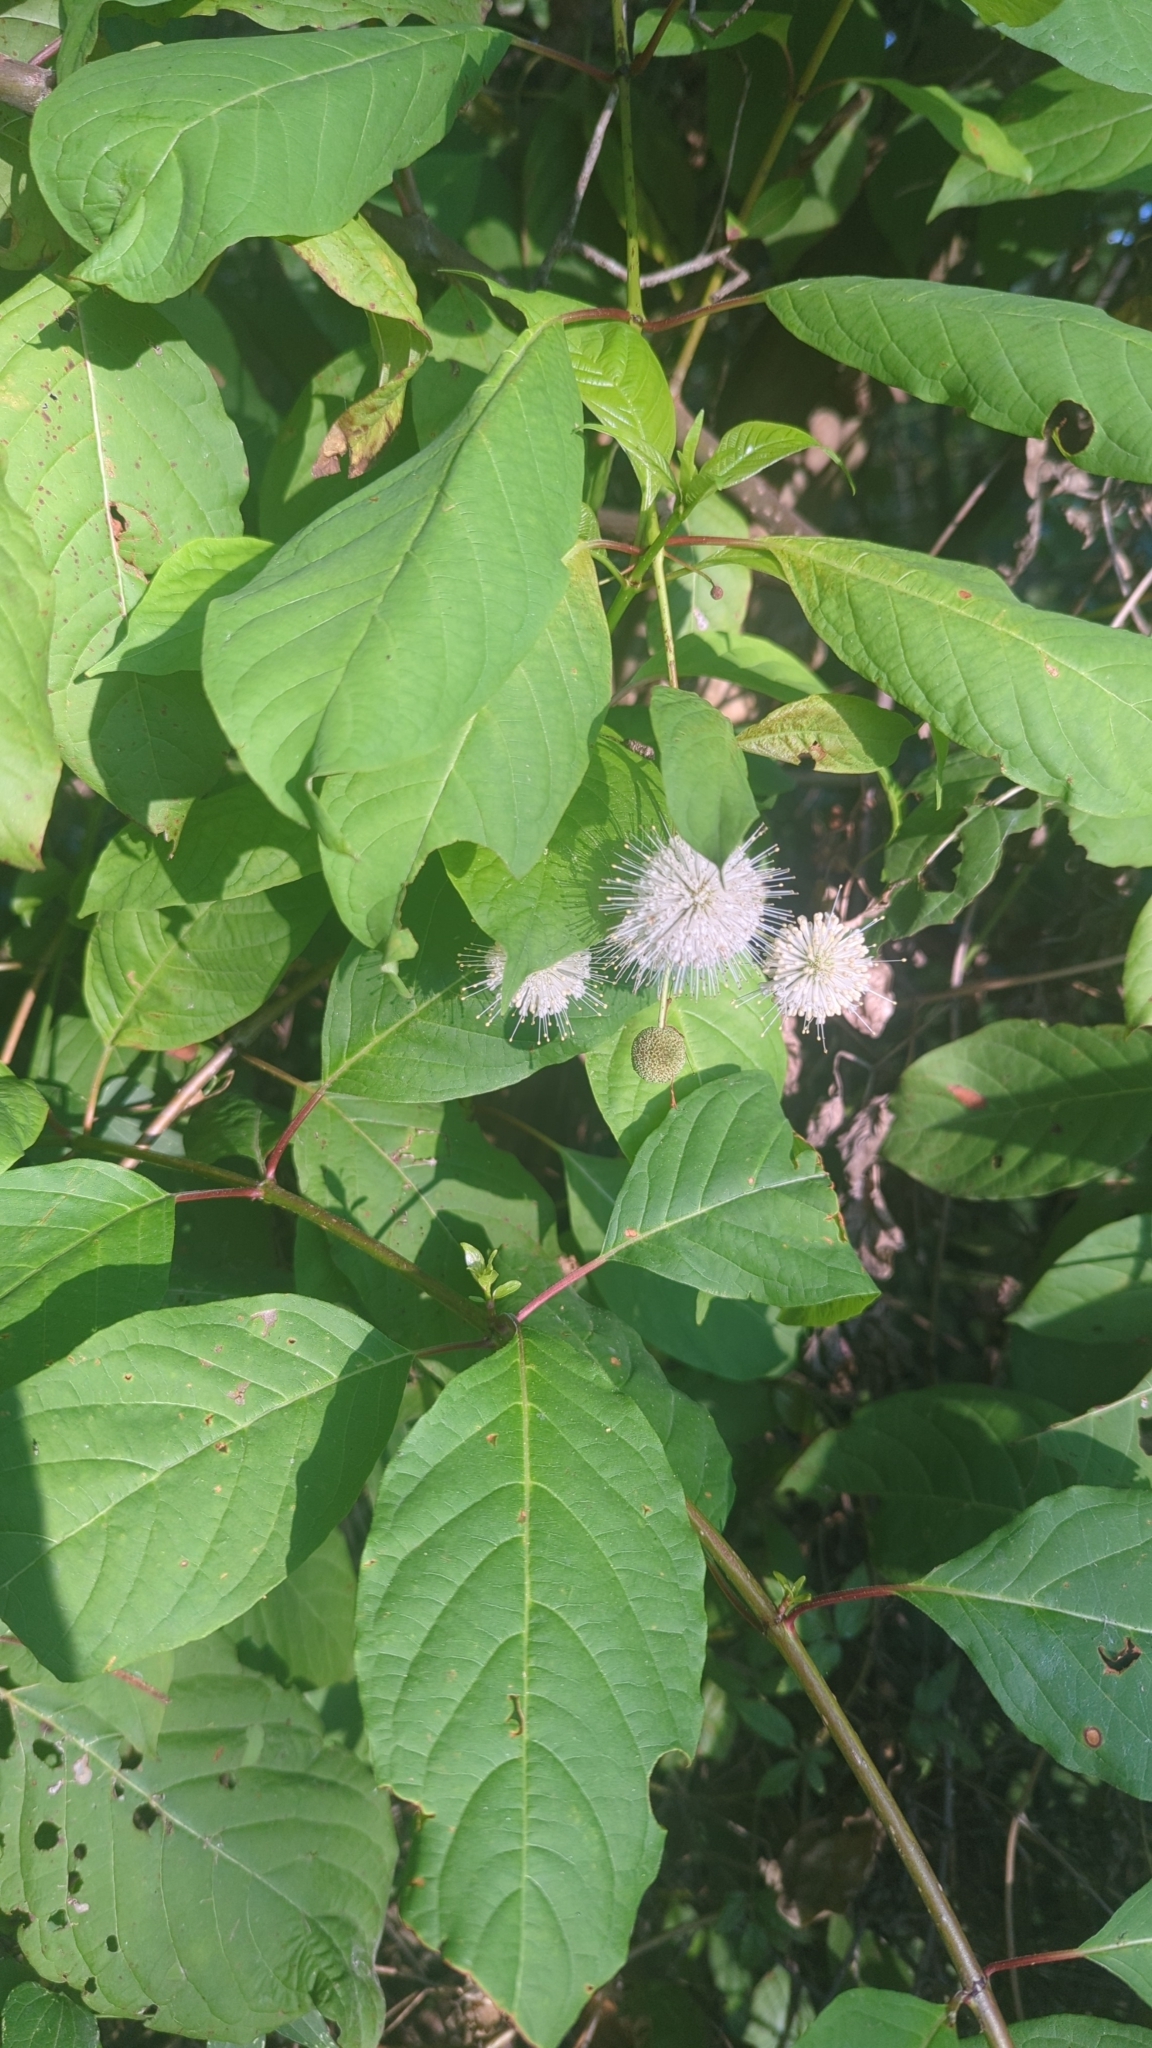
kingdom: Plantae
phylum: Tracheophyta
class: Magnoliopsida
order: Gentianales
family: Rubiaceae
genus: Cephalanthus
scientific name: Cephalanthus occidentalis
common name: Button-willow
